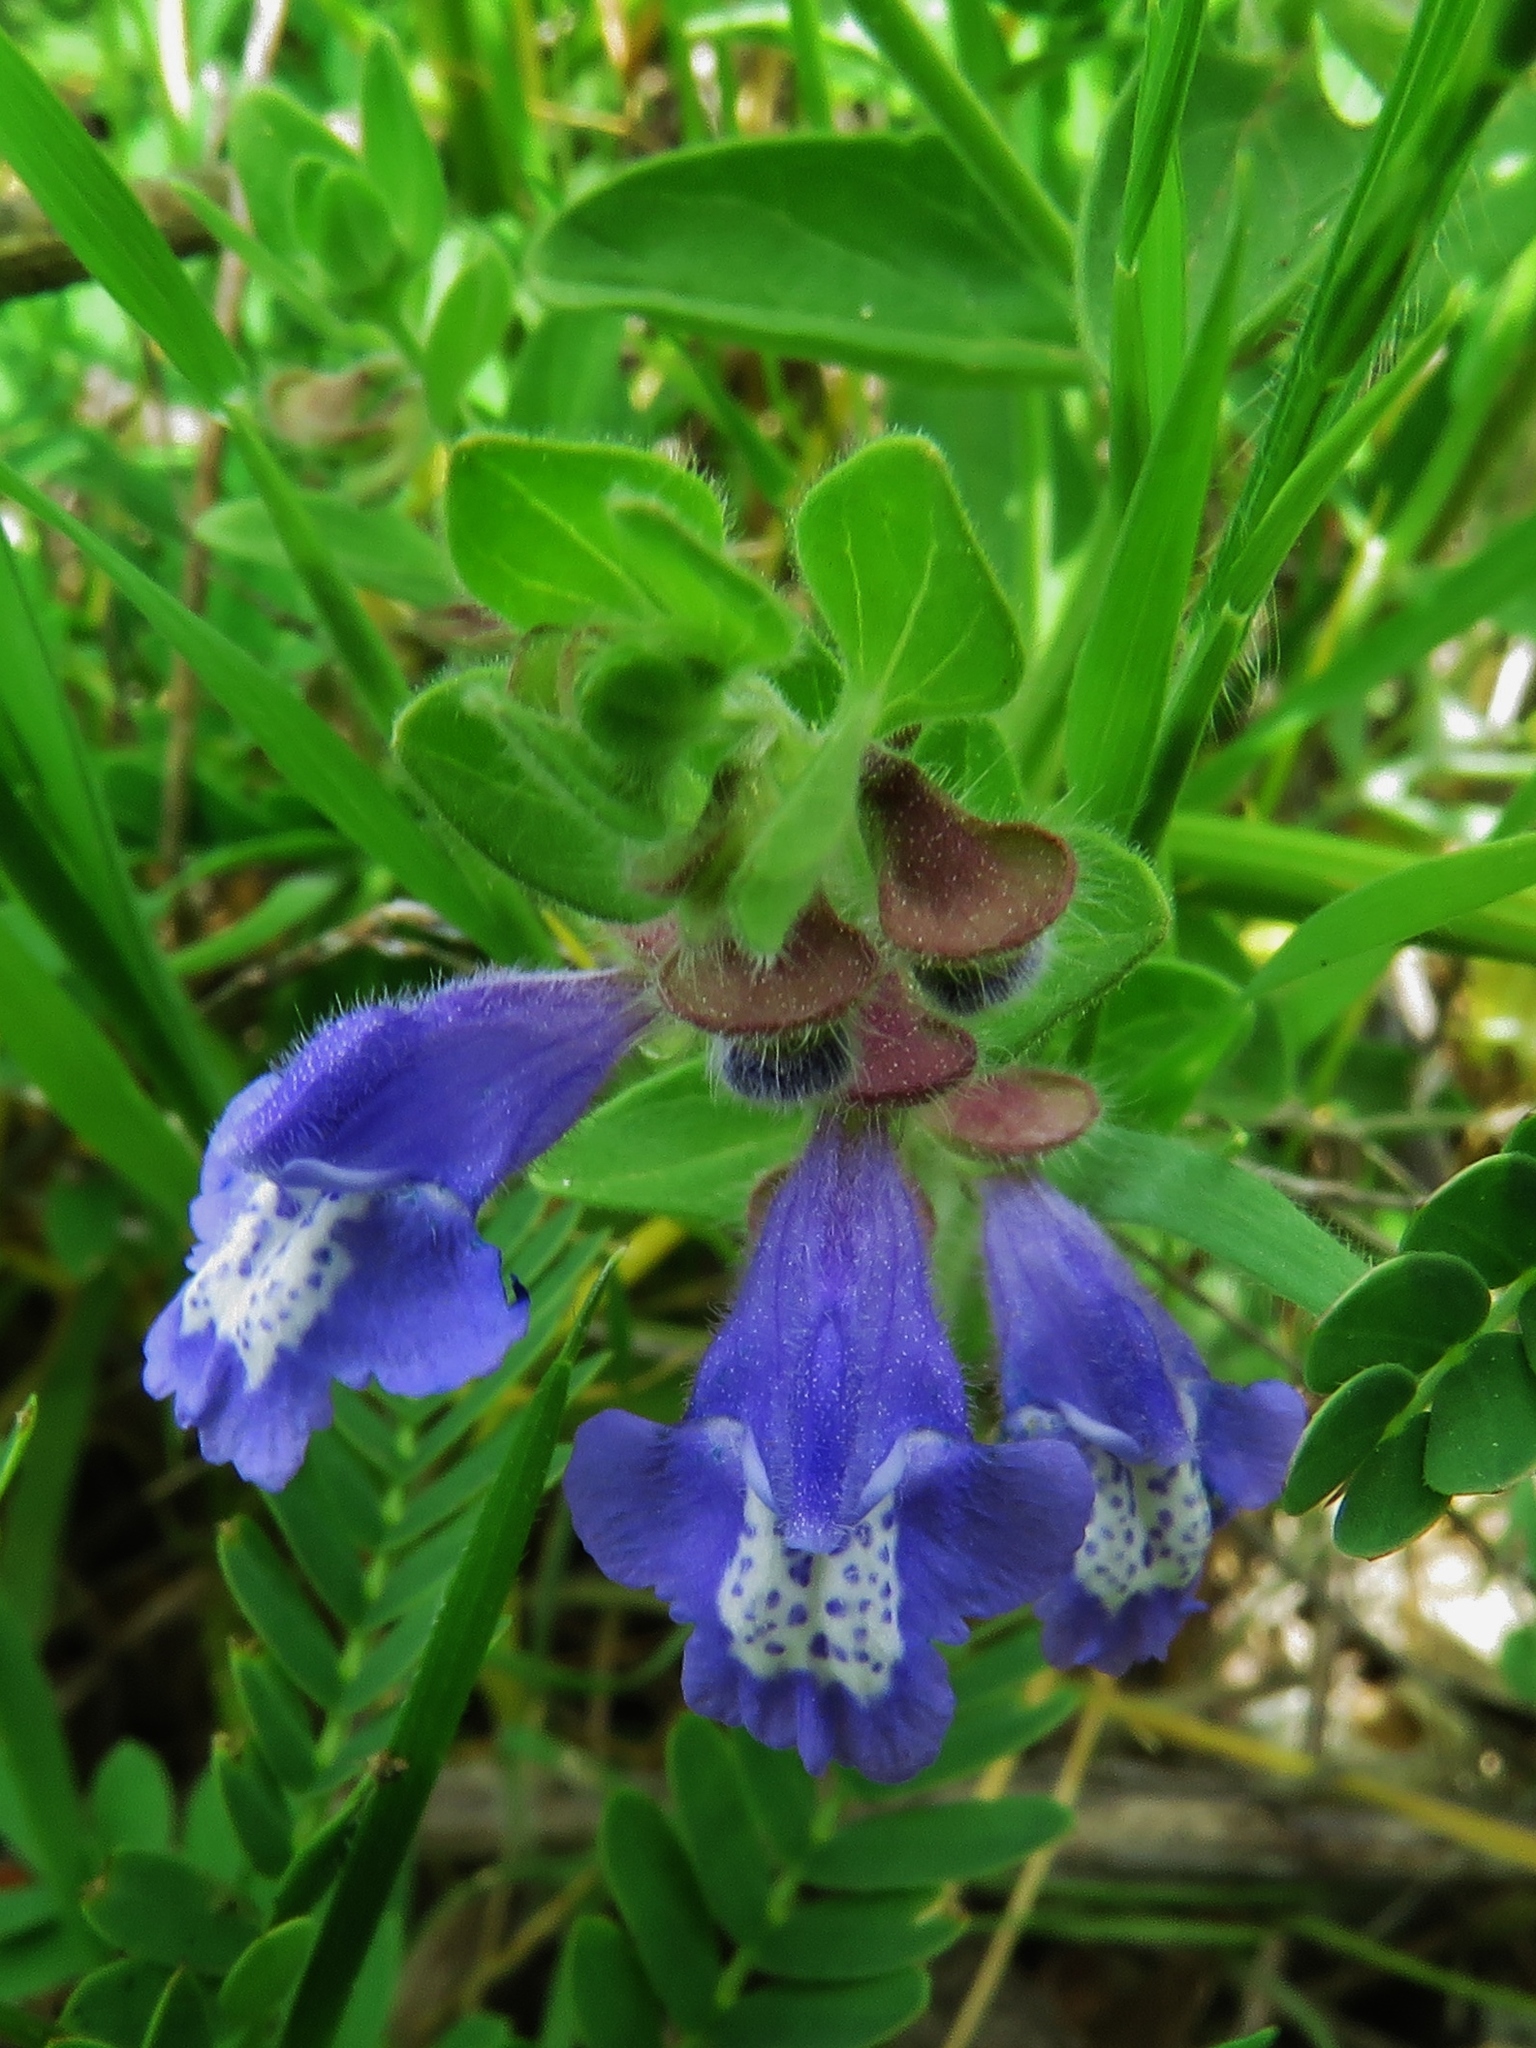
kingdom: Plantae
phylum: Tracheophyta
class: Magnoliopsida
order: Lamiales
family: Lamiaceae
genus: Scutellaria
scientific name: Scutellaria drummondii
